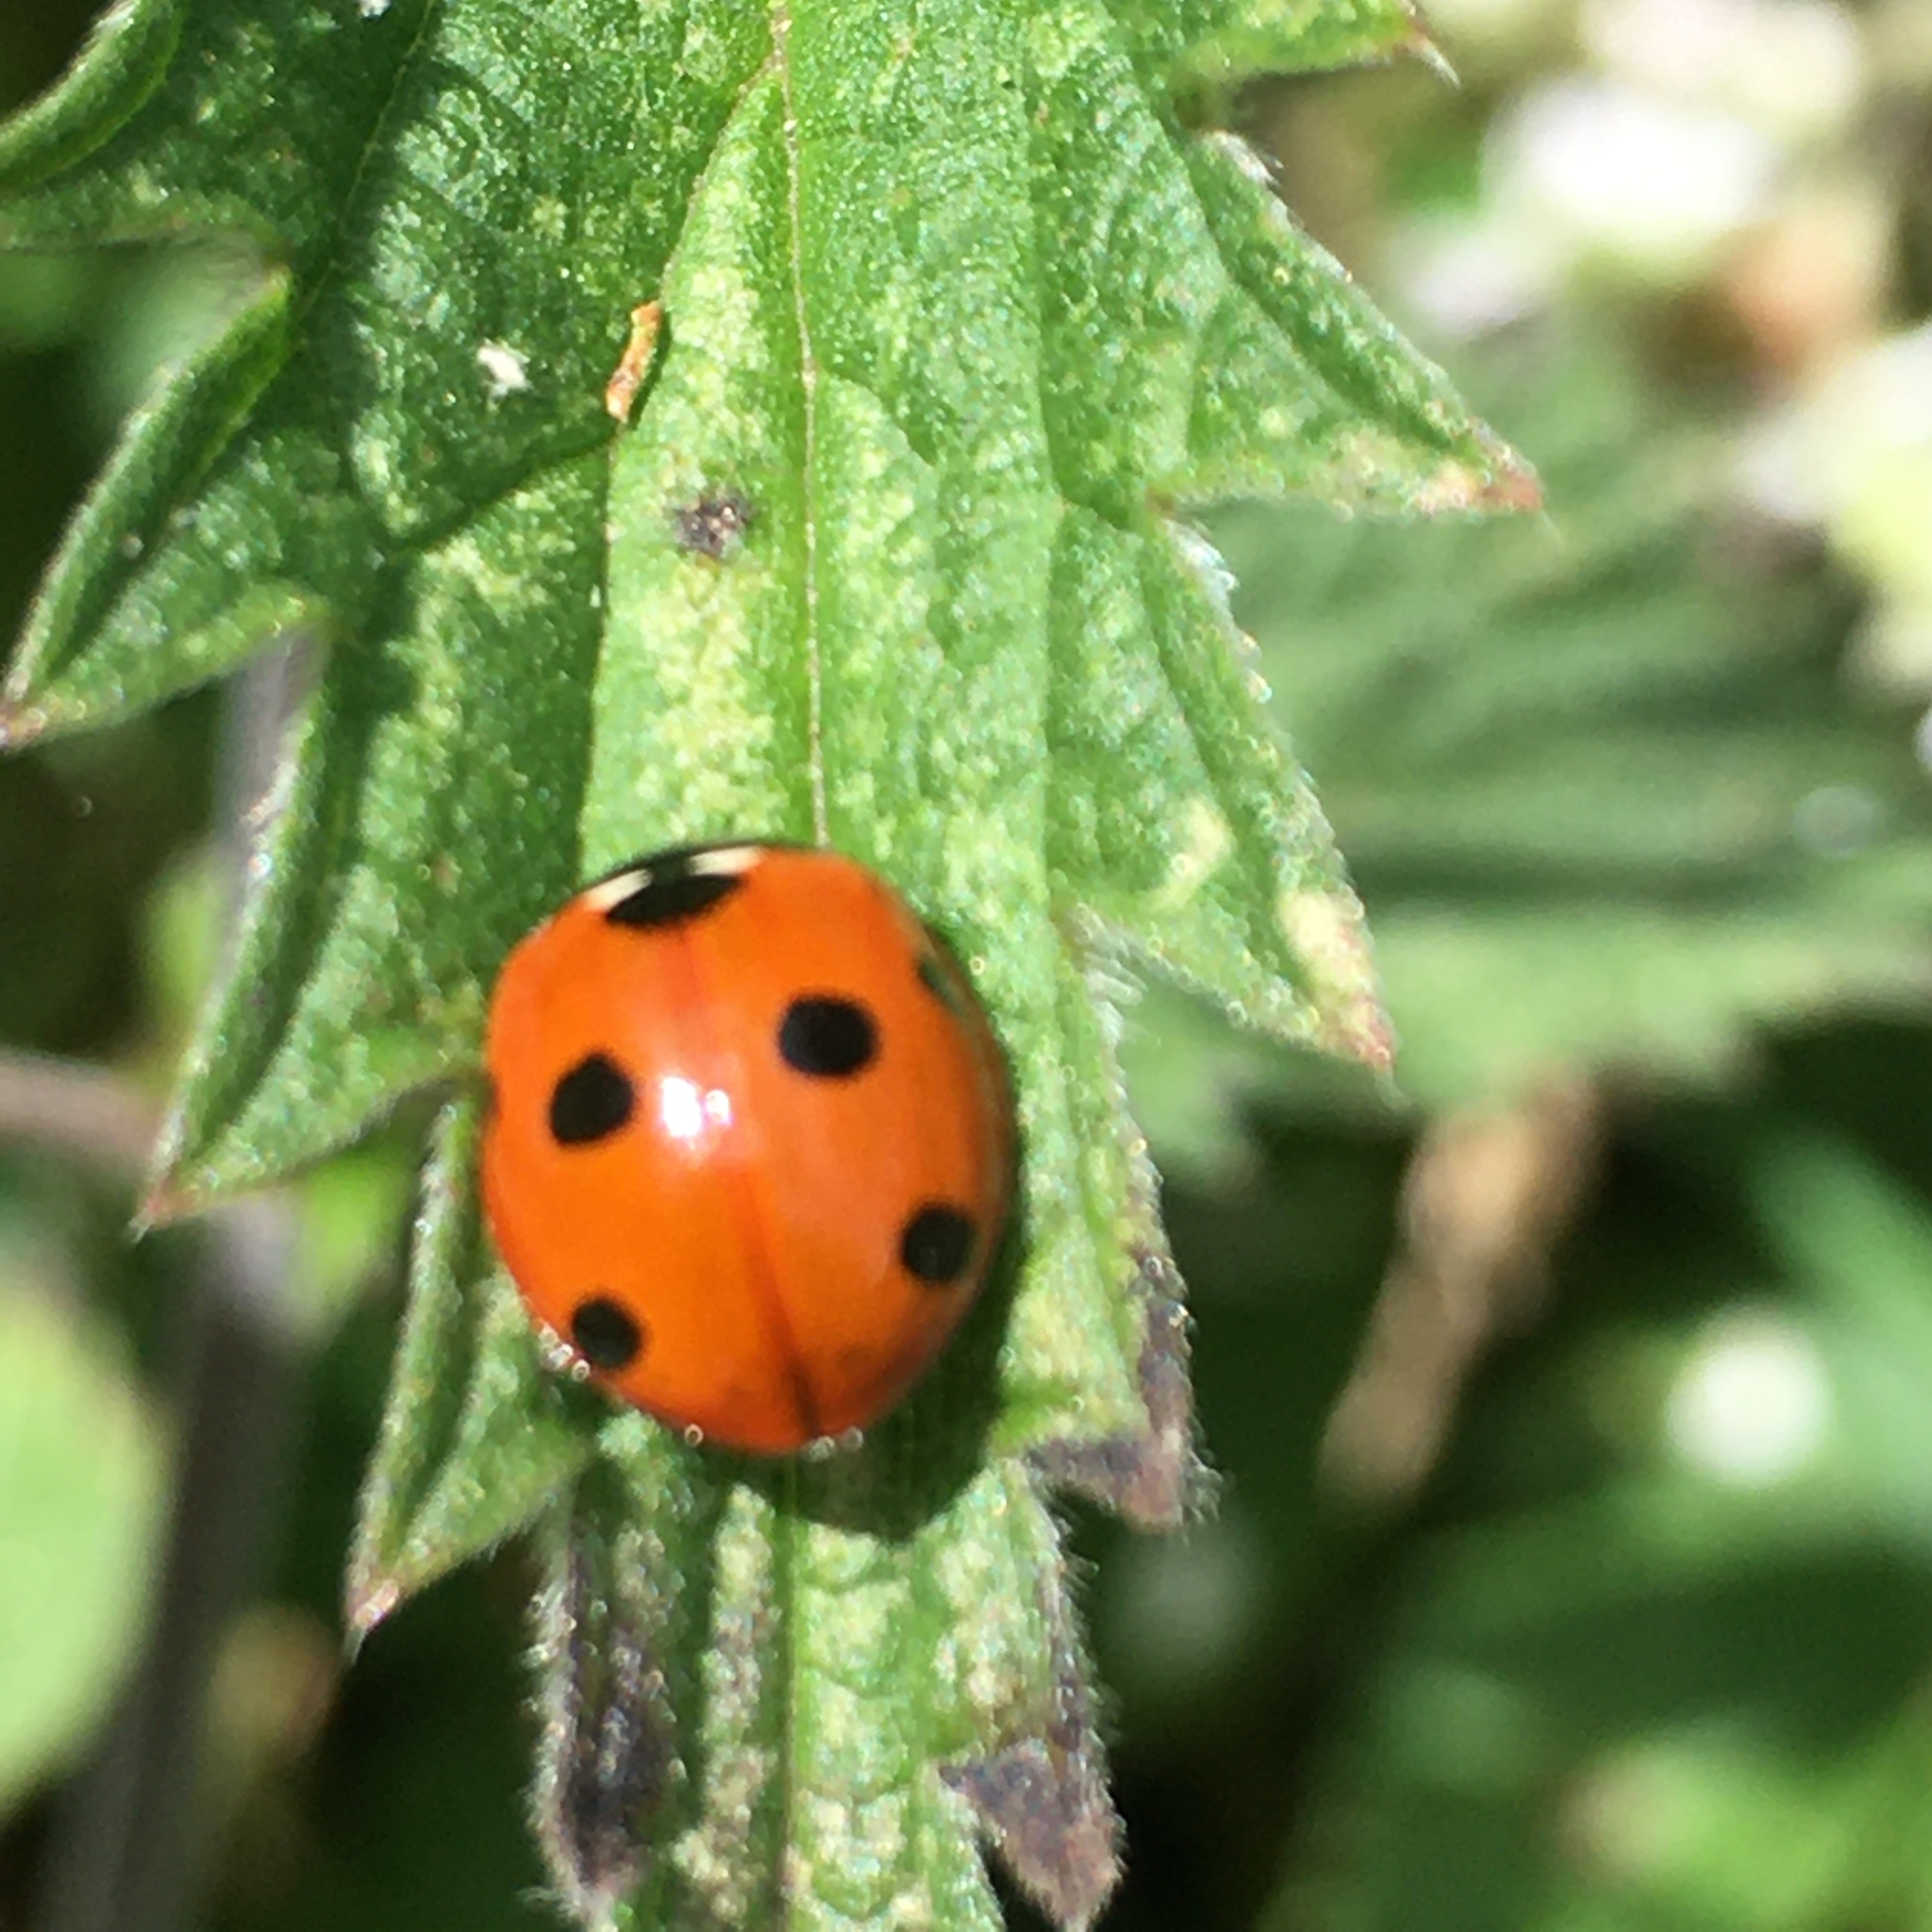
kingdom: Animalia
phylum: Arthropoda
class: Insecta
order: Coleoptera
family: Coccinellidae
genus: Coccinella
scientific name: Coccinella septempunctata
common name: Sevenspotted lady beetle
